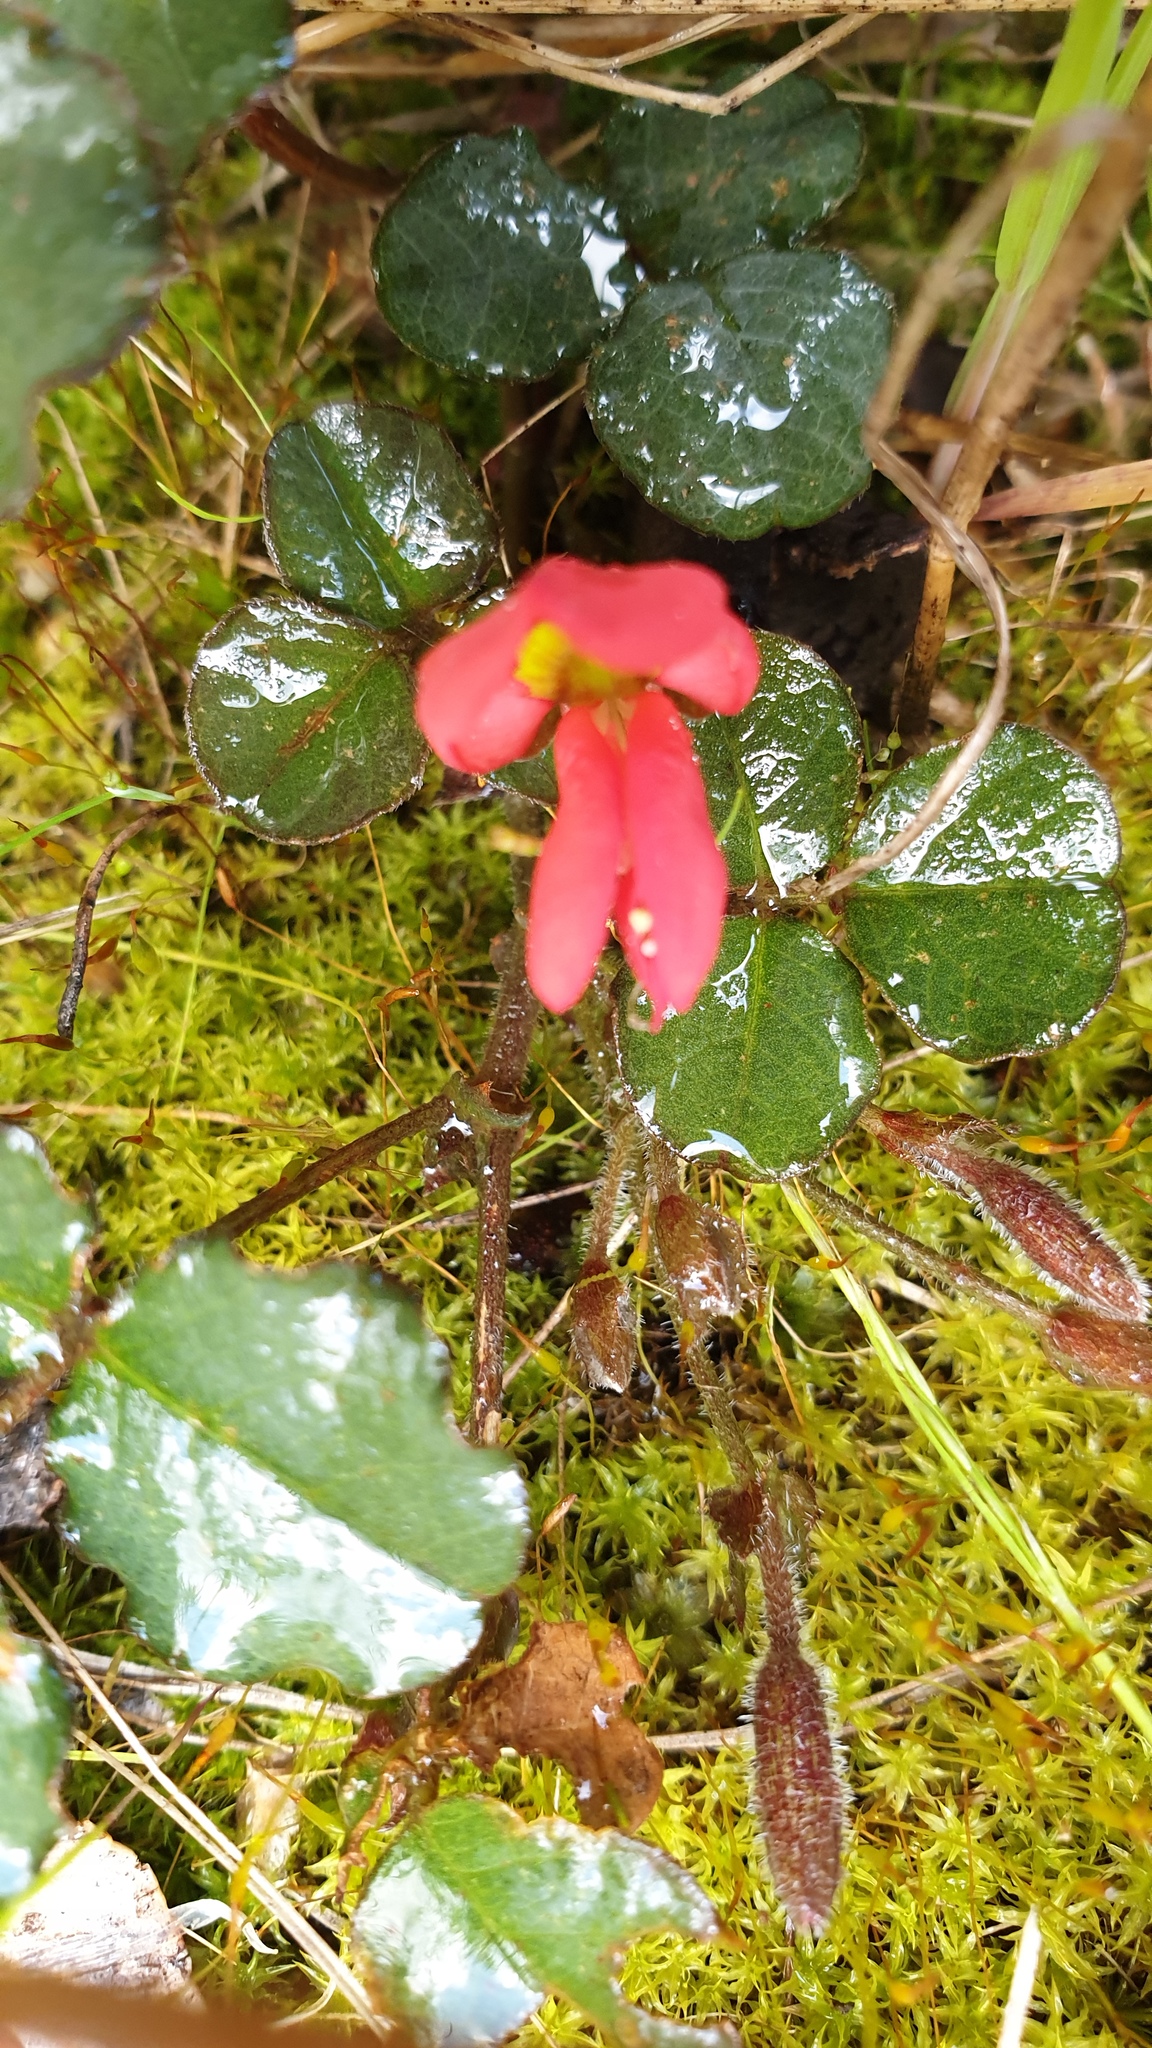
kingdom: Plantae
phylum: Tracheophyta
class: Magnoliopsida
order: Fabales
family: Fabaceae
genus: Kennedia
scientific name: Kennedia prostrata
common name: Running-postman
